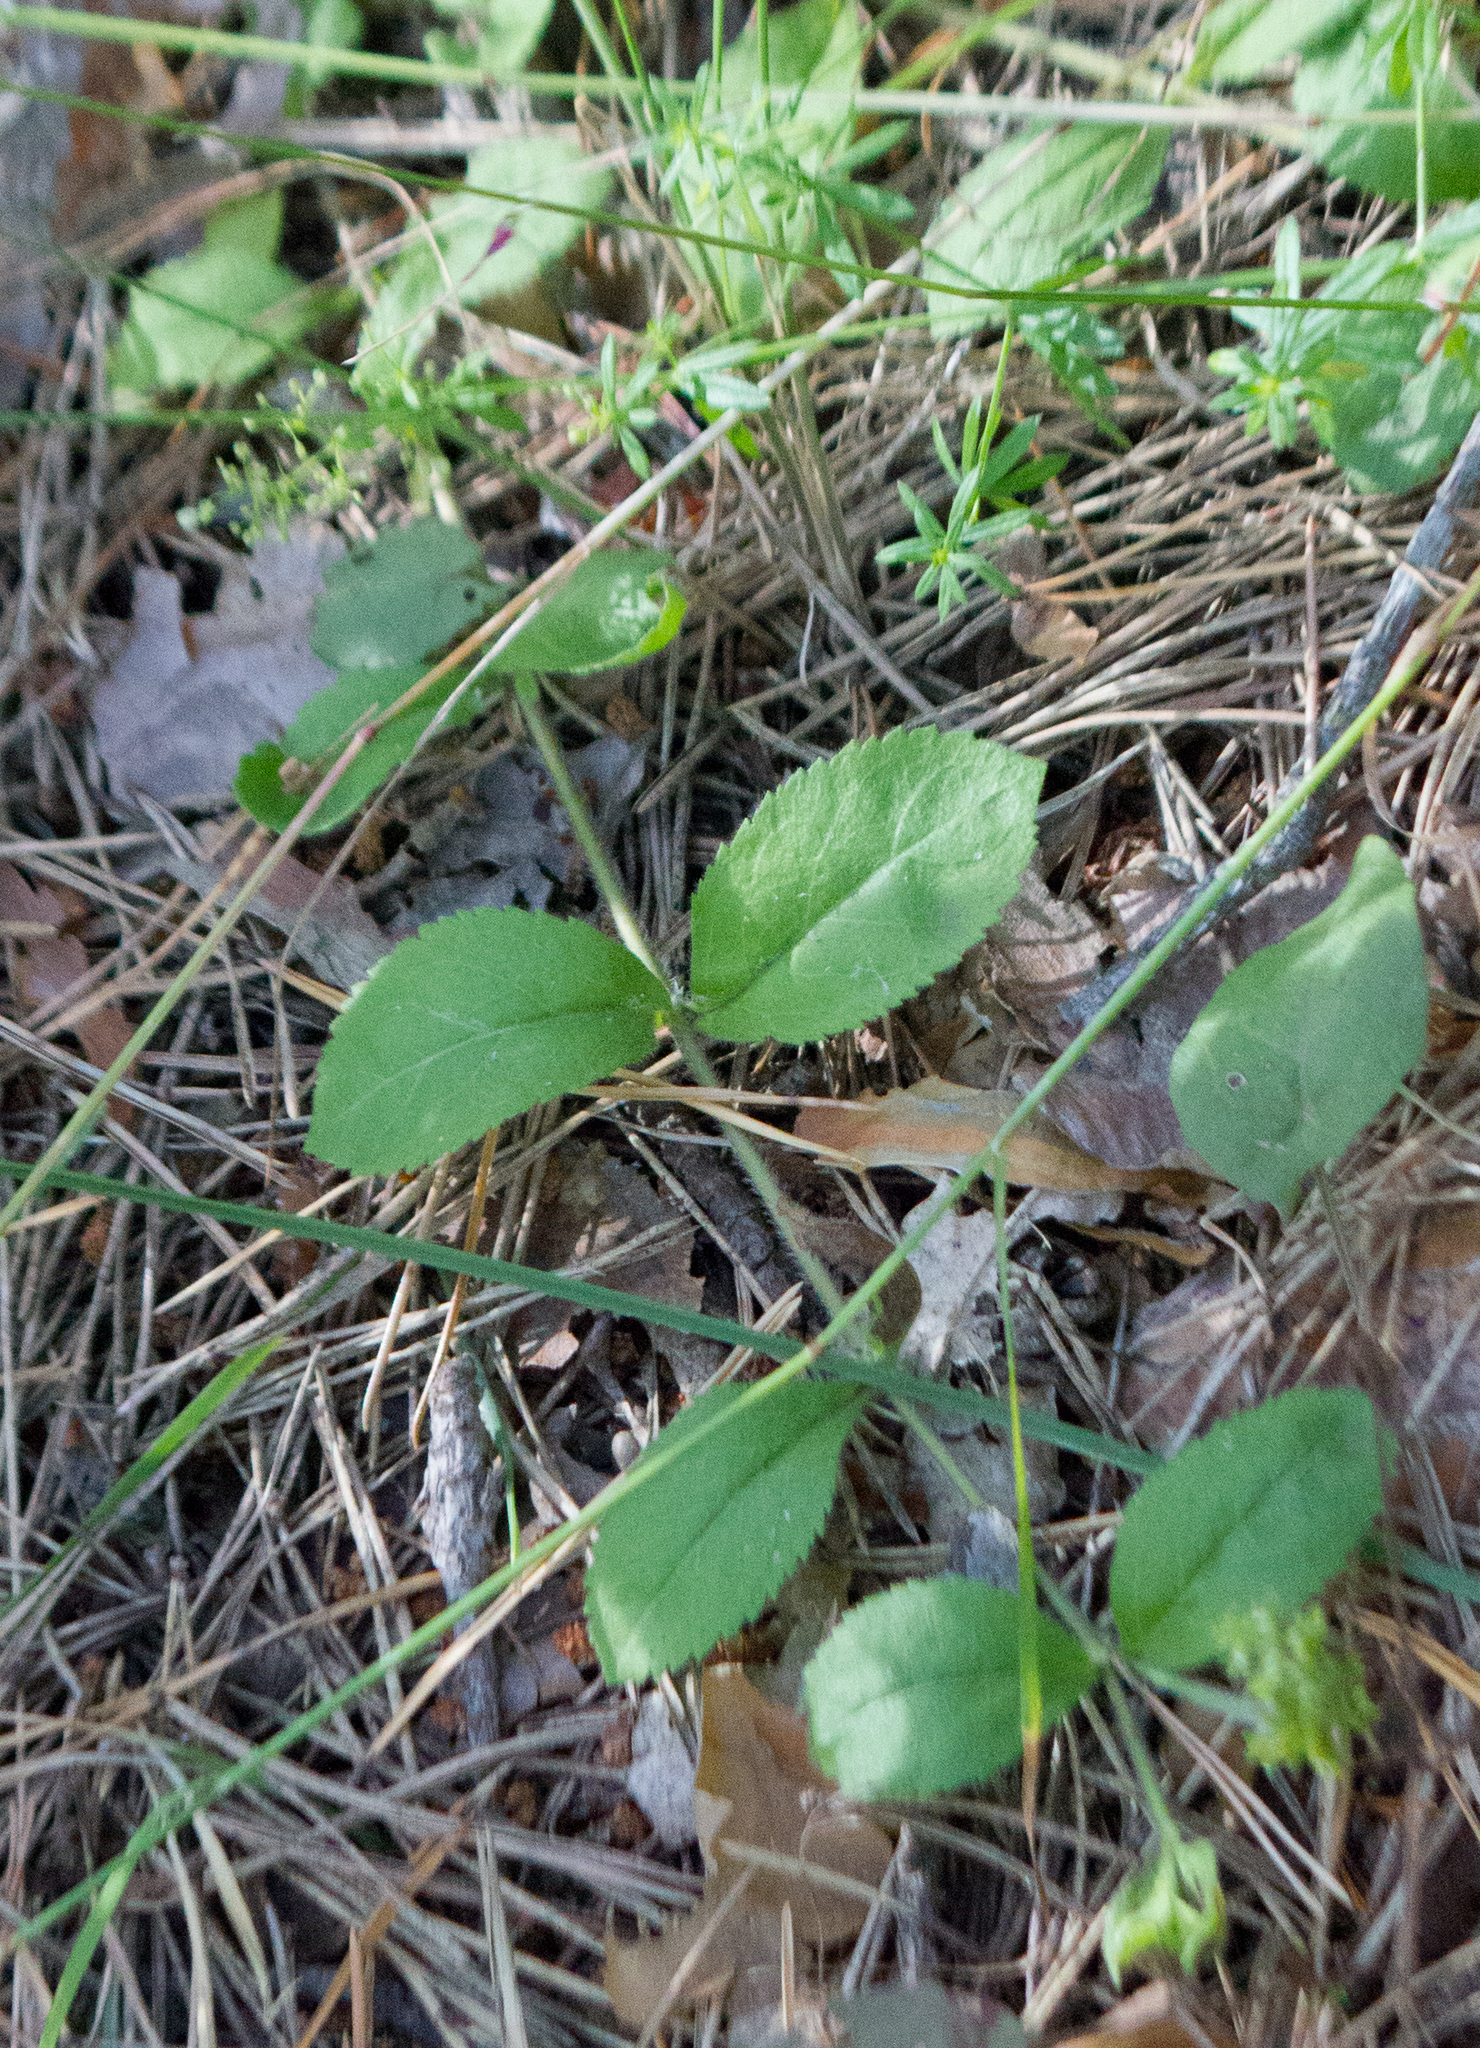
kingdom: Plantae
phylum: Tracheophyta
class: Magnoliopsida
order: Lamiales
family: Plantaginaceae
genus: Veronica
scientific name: Veronica officinalis
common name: Common speedwell
